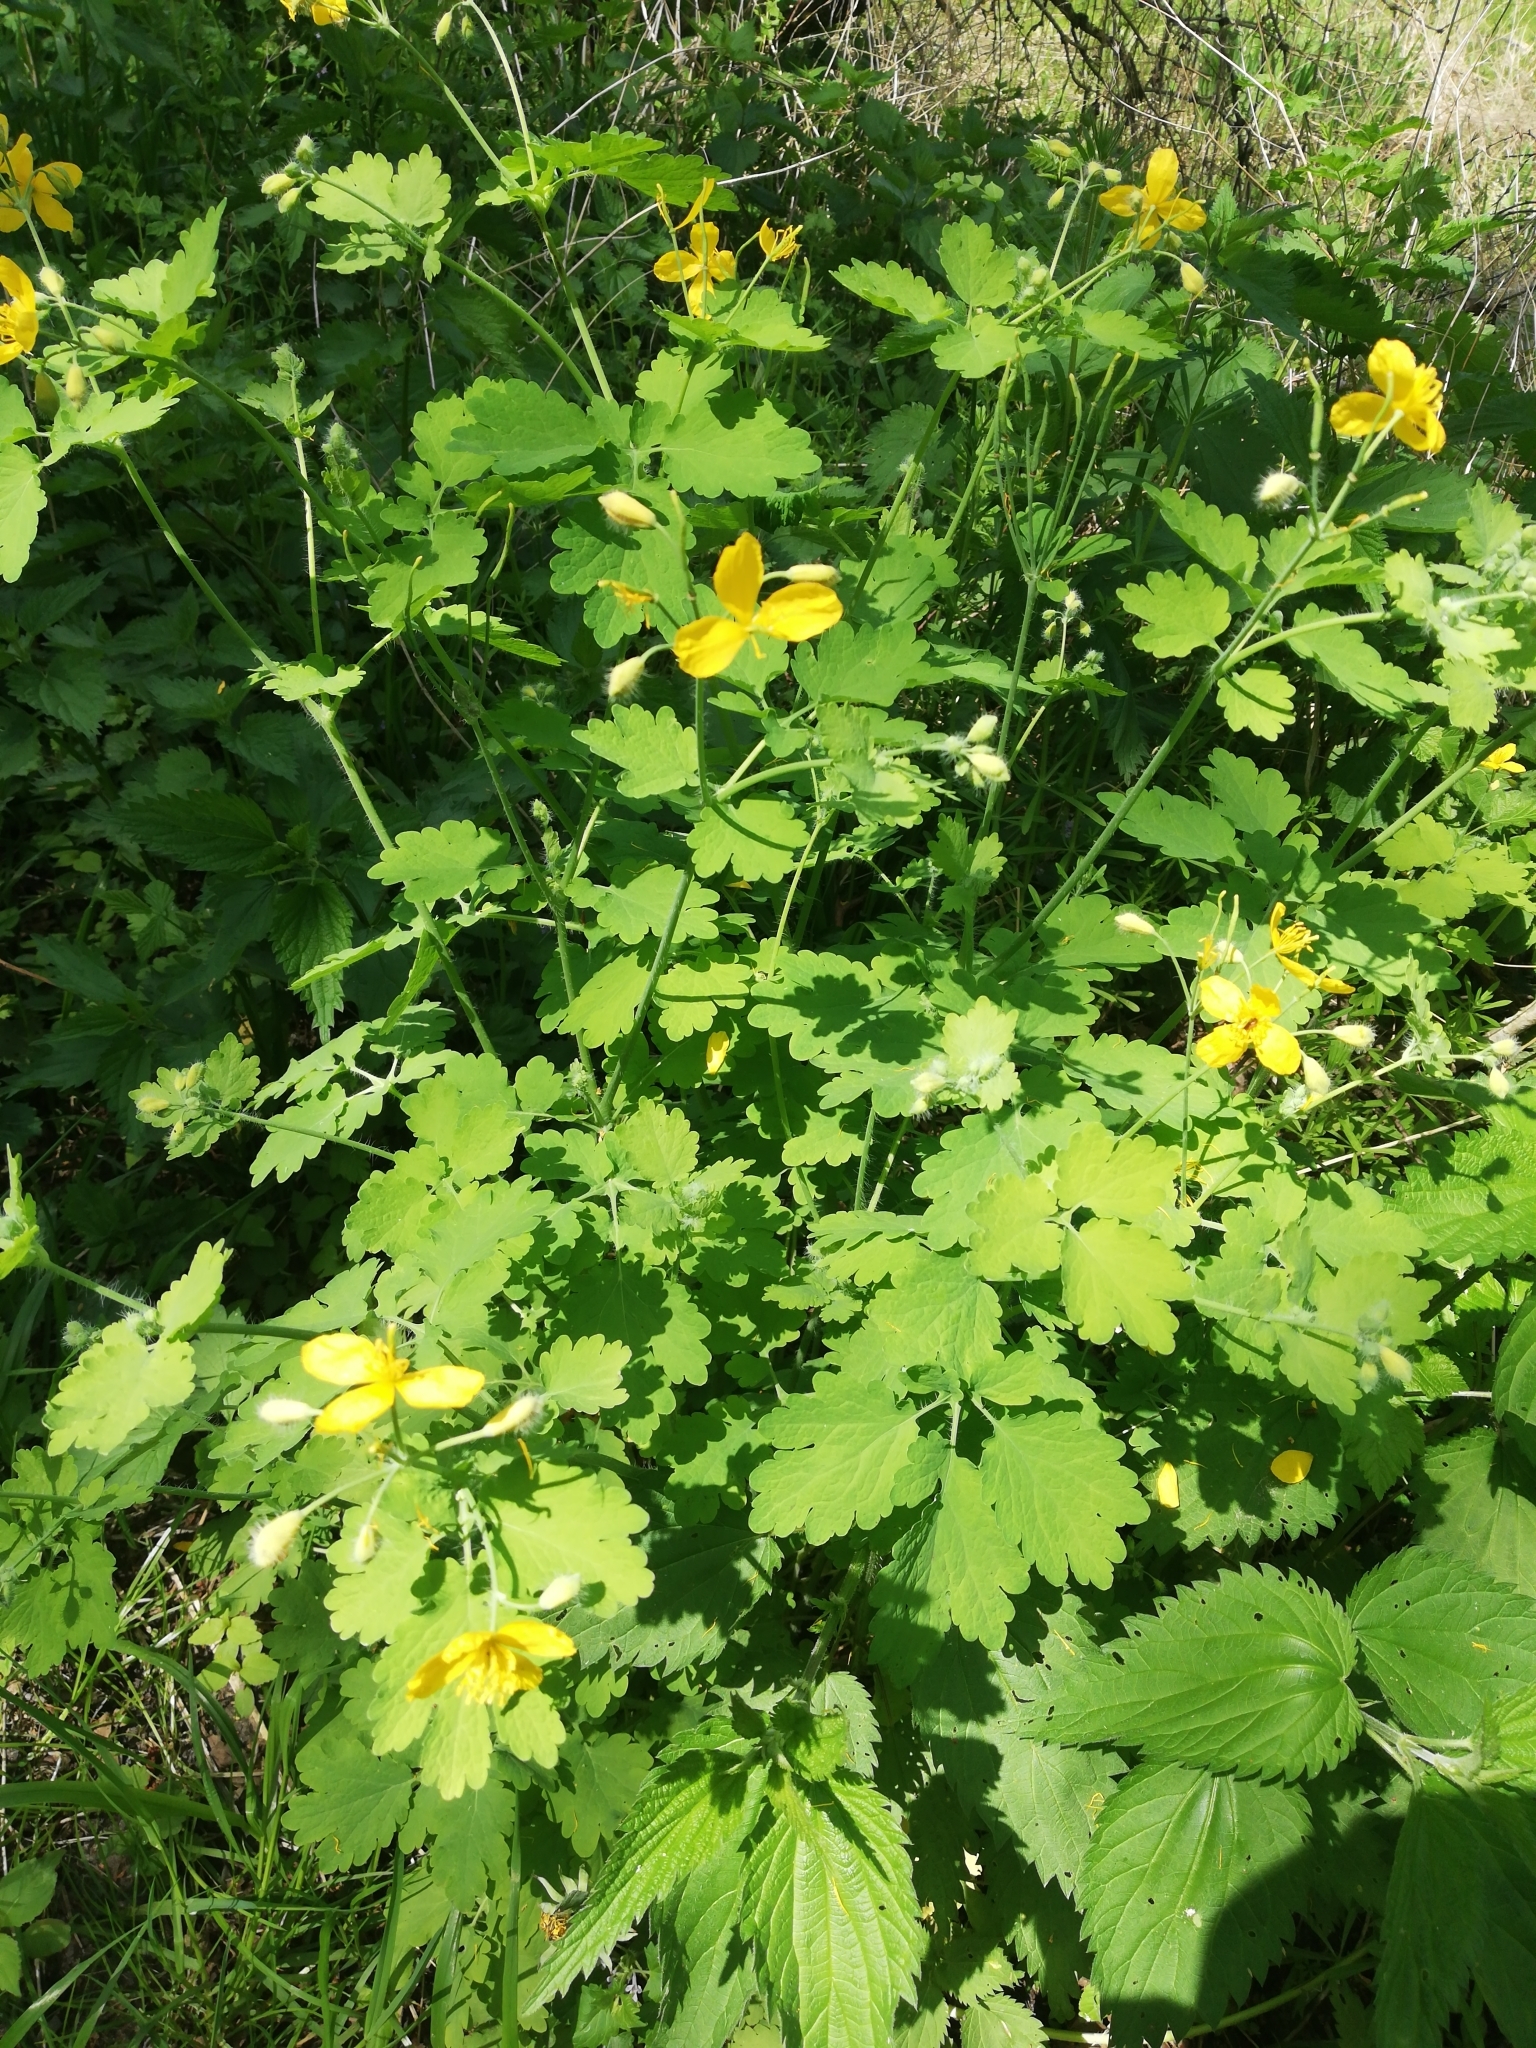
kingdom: Plantae
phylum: Tracheophyta
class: Magnoliopsida
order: Ranunculales
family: Papaveraceae
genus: Chelidonium
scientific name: Chelidonium majus
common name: Greater celandine
